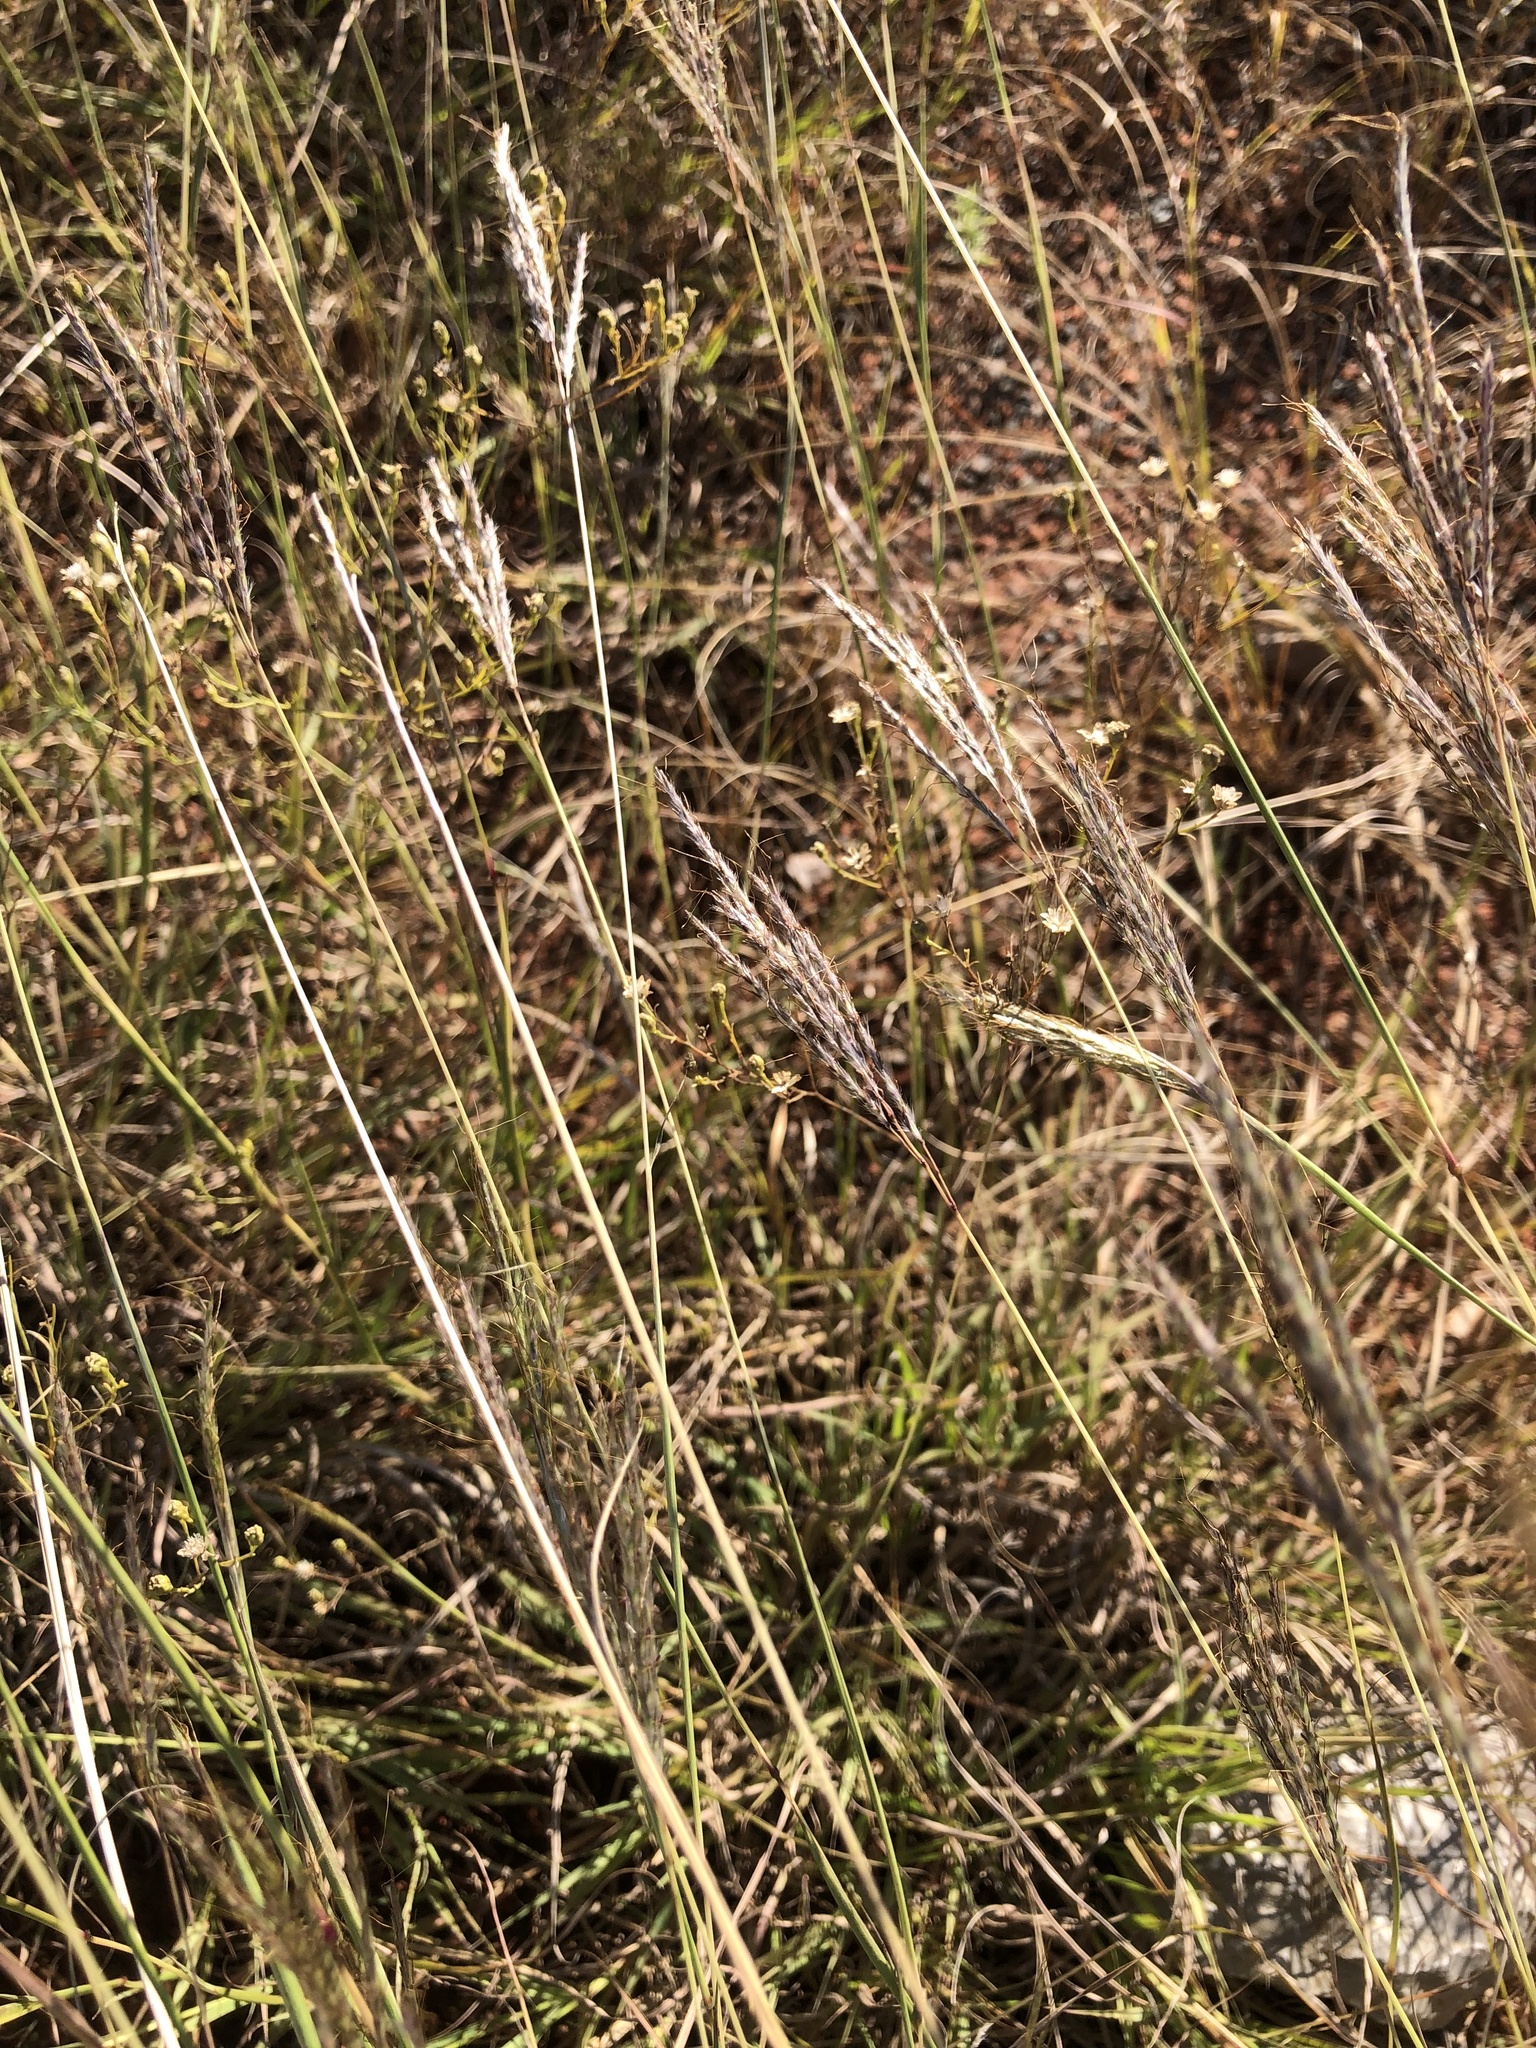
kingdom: Plantae
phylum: Tracheophyta
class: Liliopsida
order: Poales
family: Poaceae
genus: Bothriochloa
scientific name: Bothriochloa ischaemum
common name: Yellow bluestem
